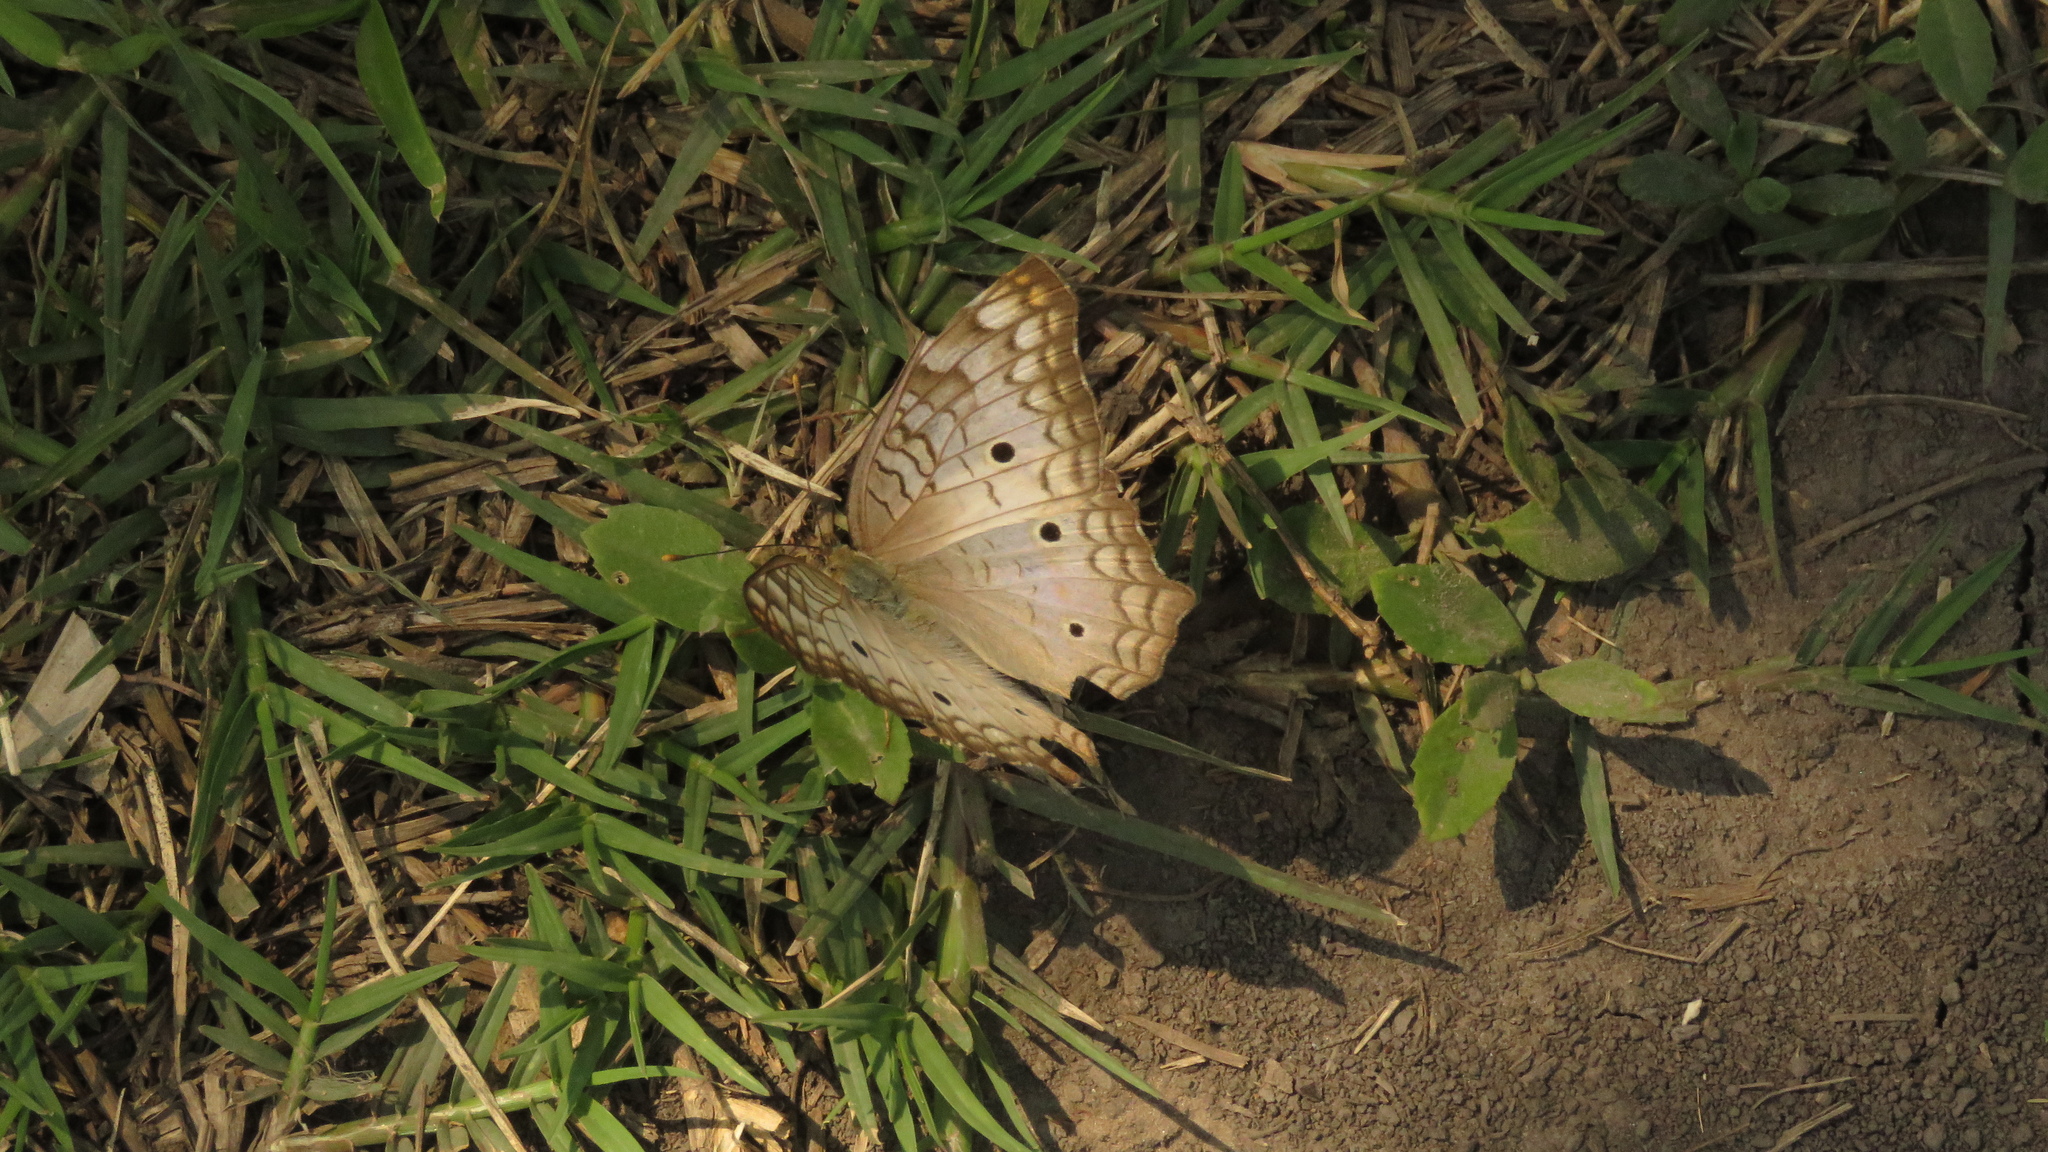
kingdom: Animalia
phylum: Arthropoda
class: Insecta
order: Lepidoptera
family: Nymphalidae
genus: Anartia
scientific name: Anartia jatrophae
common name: White peacock
